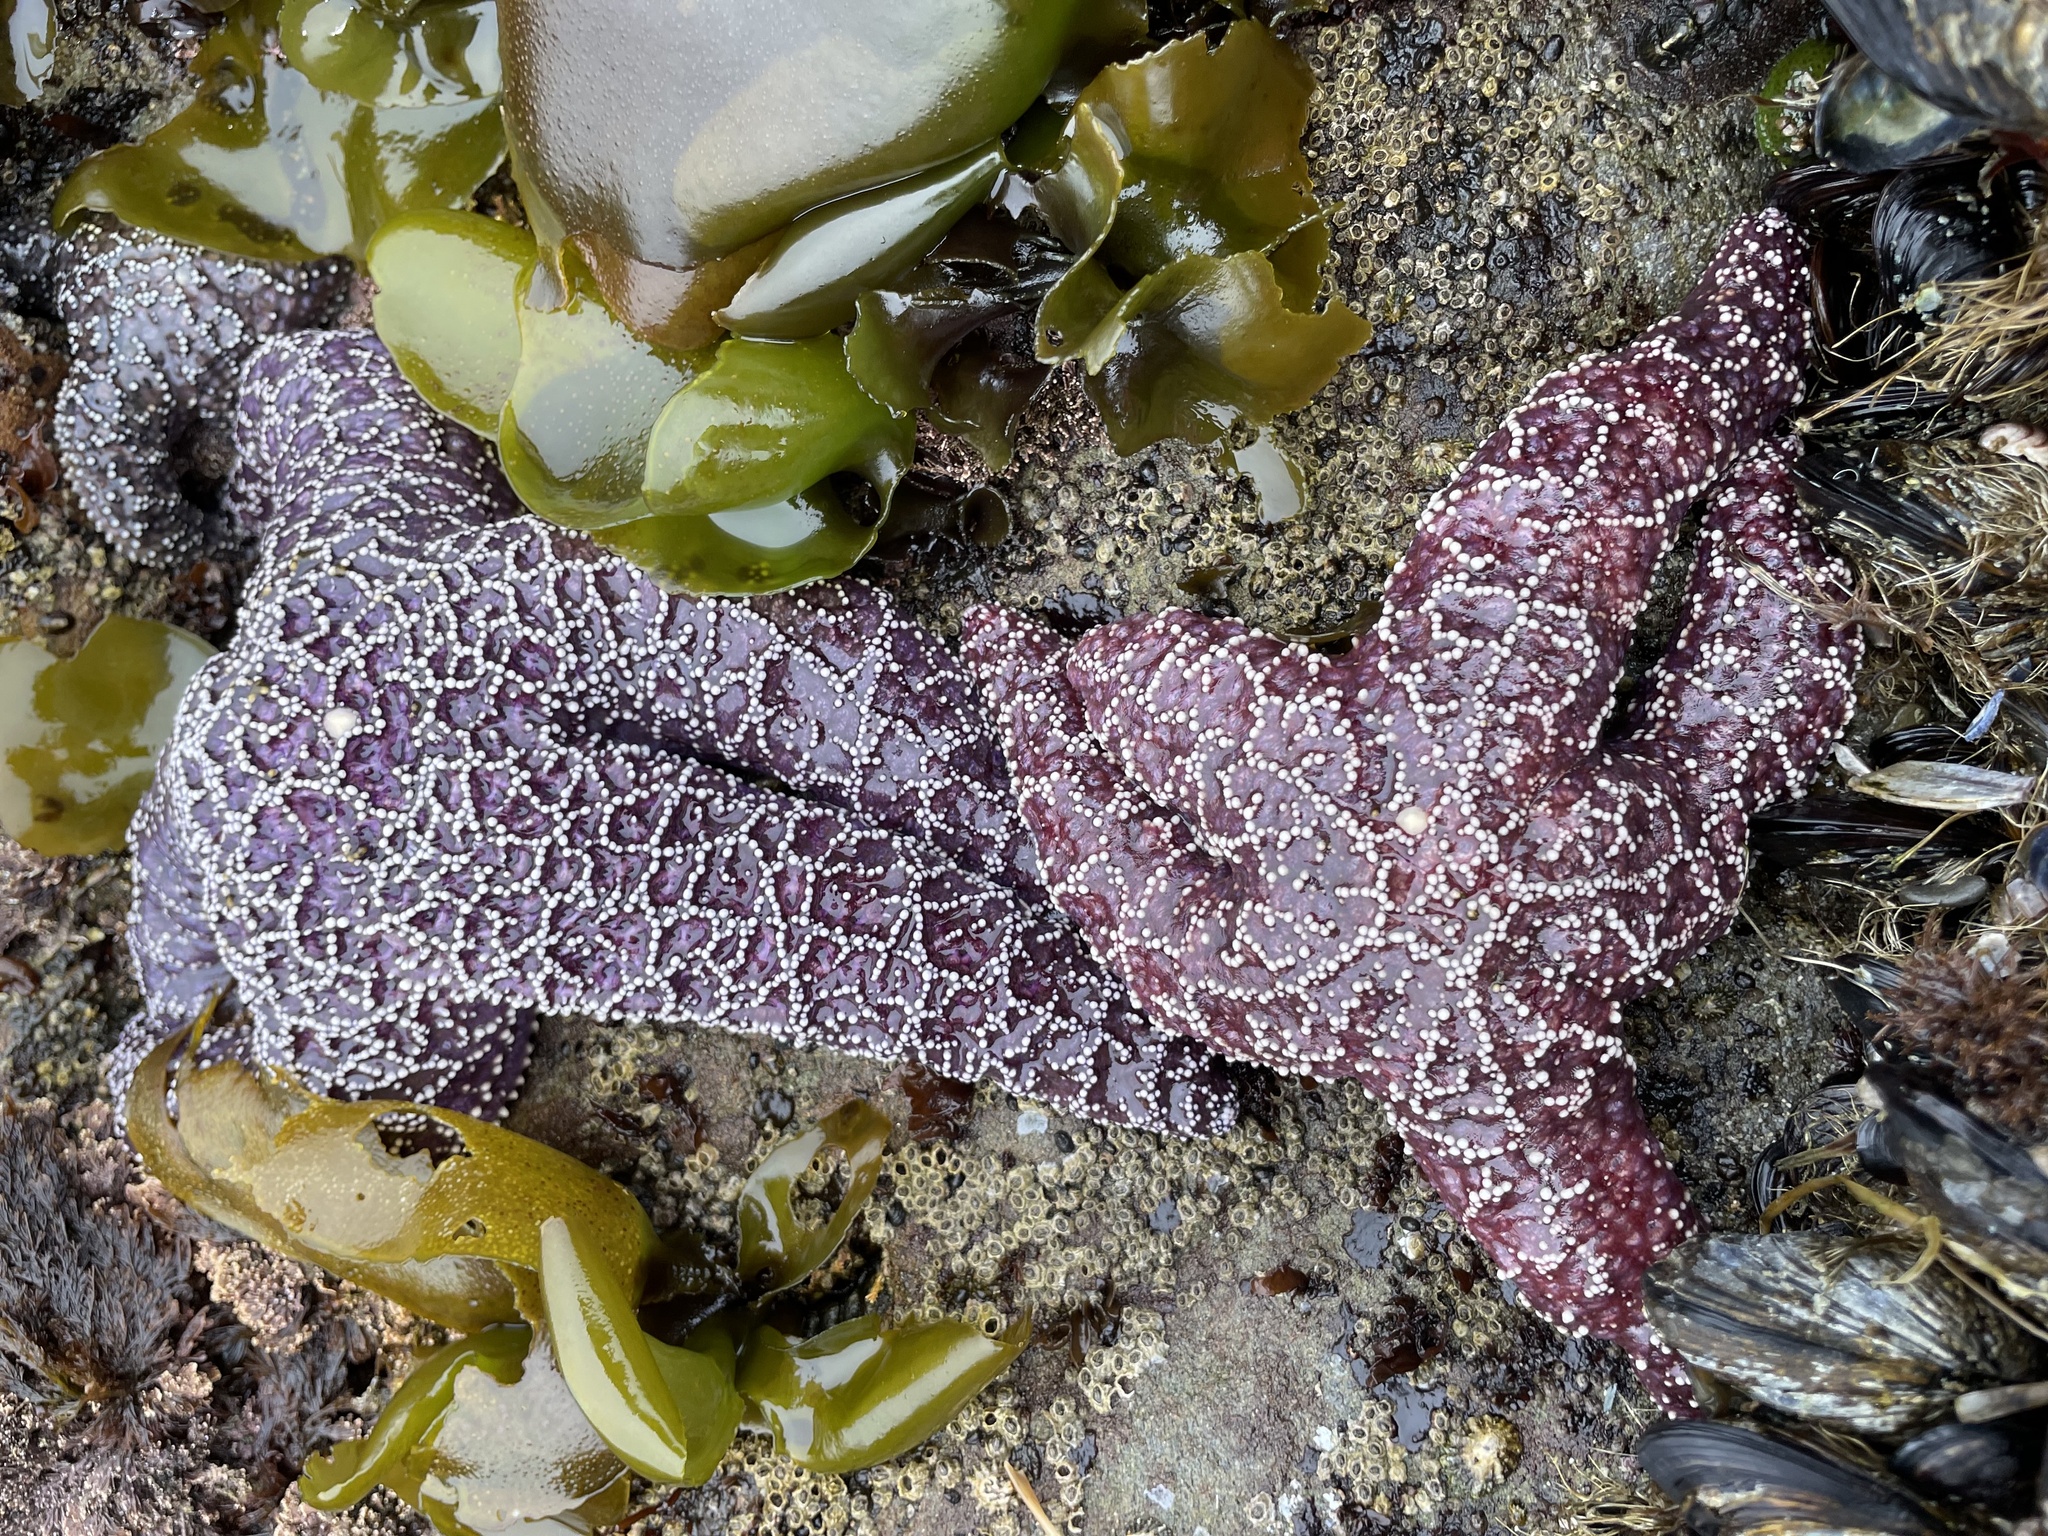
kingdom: Animalia
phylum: Echinodermata
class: Asteroidea
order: Forcipulatida
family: Asteriidae
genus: Pisaster
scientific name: Pisaster ochraceus
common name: Ochre stars
